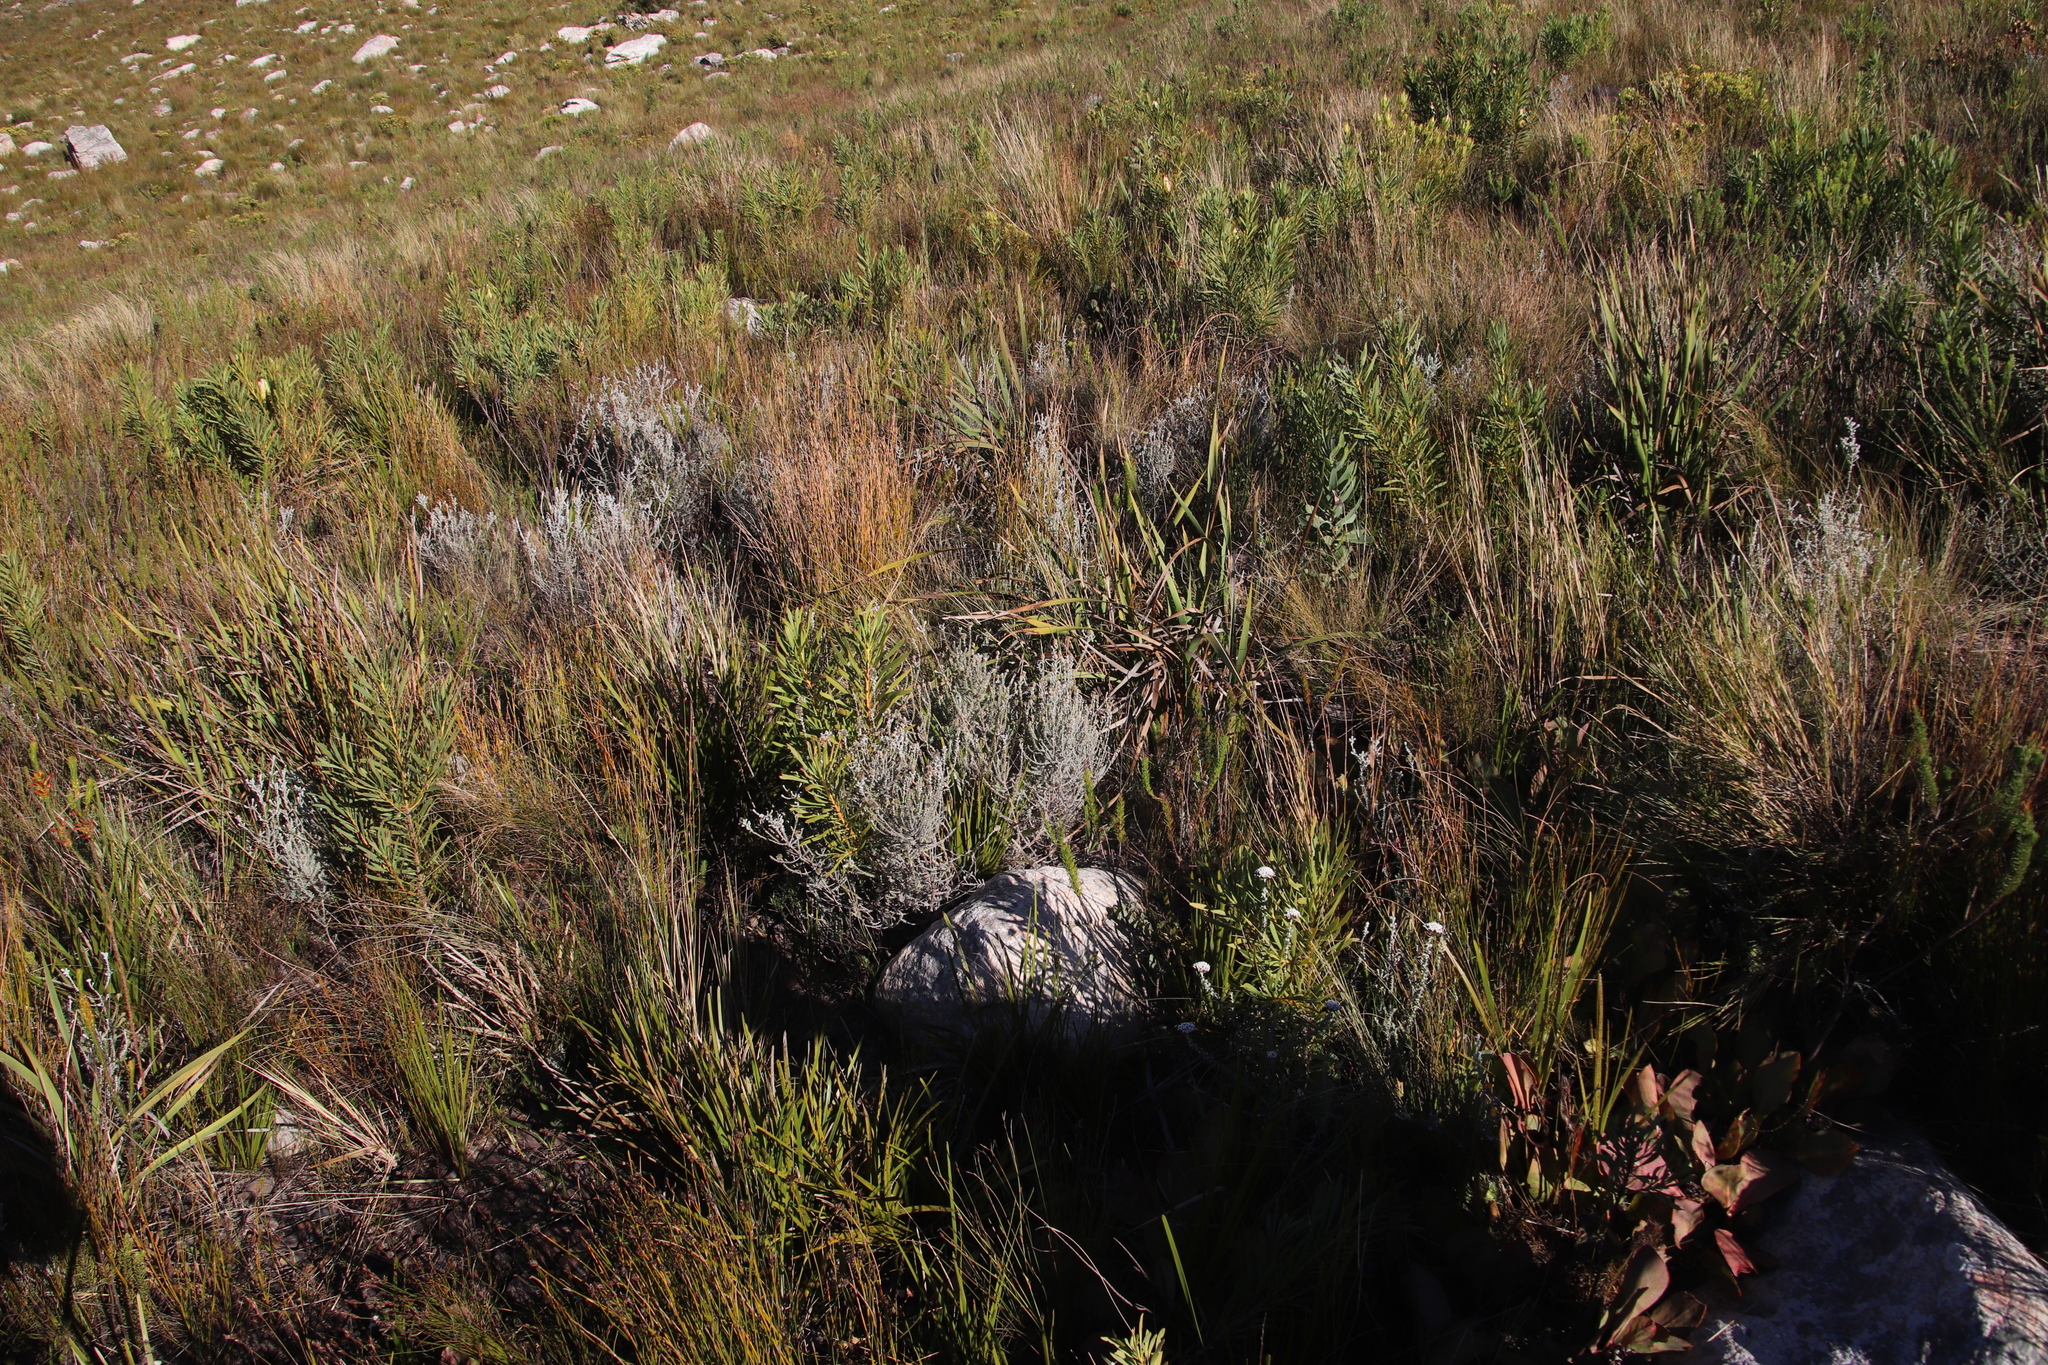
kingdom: Plantae
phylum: Tracheophyta
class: Magnoliopsida
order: Asterales
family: Asteraceae
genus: Seriphium
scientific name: Seriphium incanum
